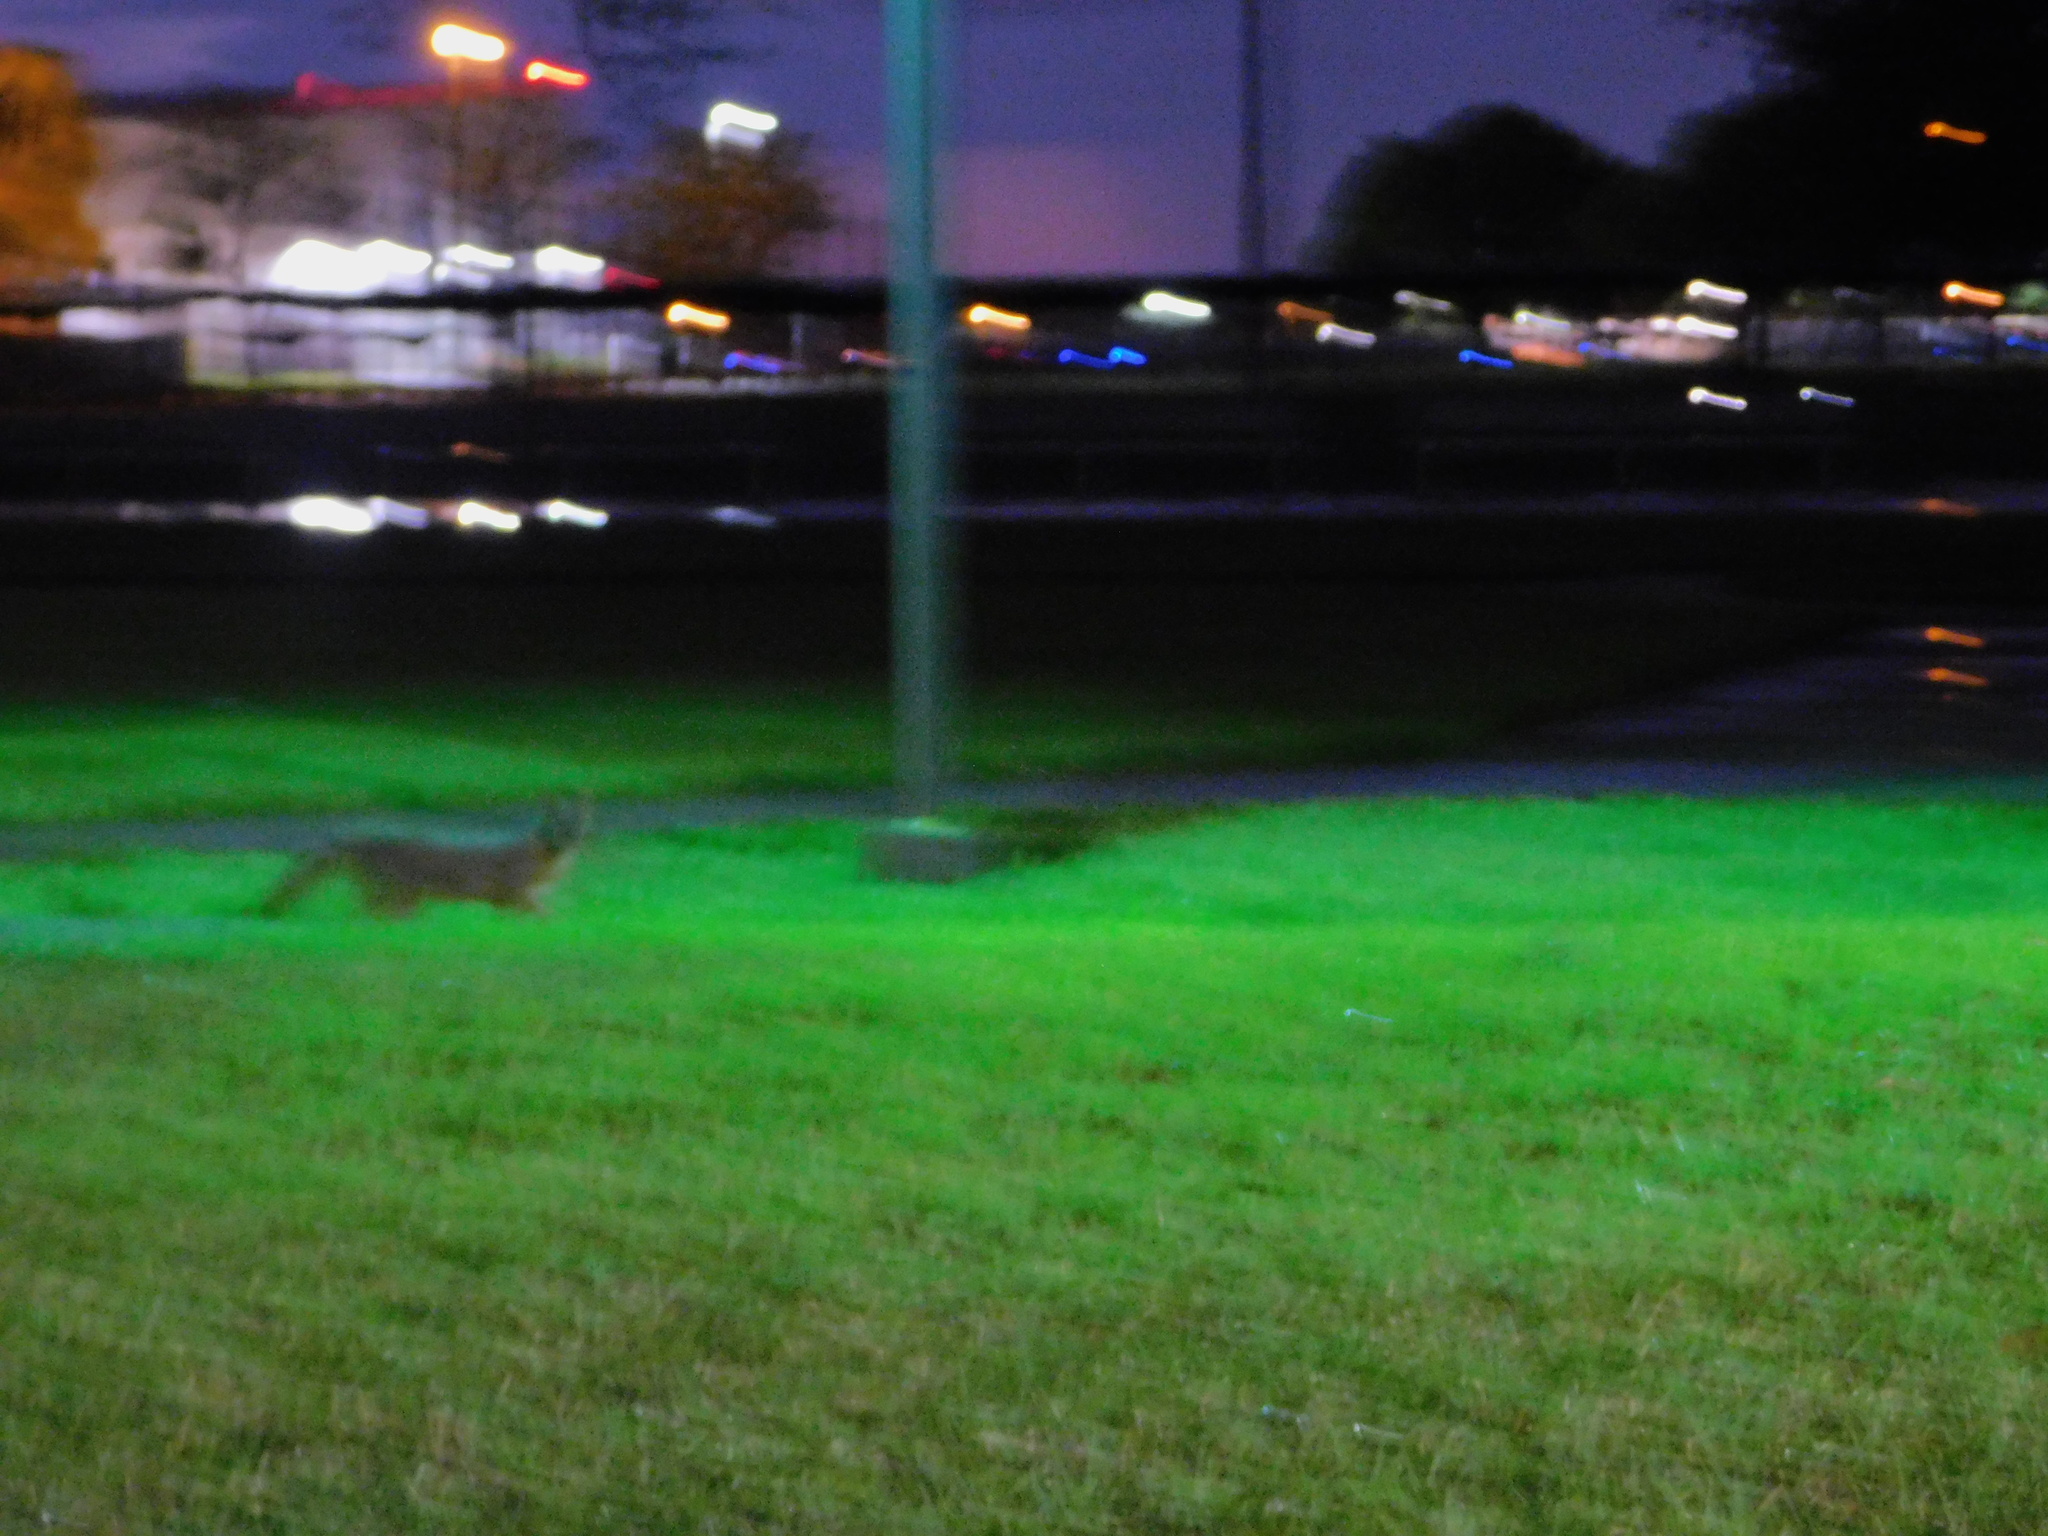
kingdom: Animalia
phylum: Chordata
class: Mammalia
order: Carnivora
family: Canidae
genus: Urocyon
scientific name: Urocyon cinereoargenteus
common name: Gray fox
